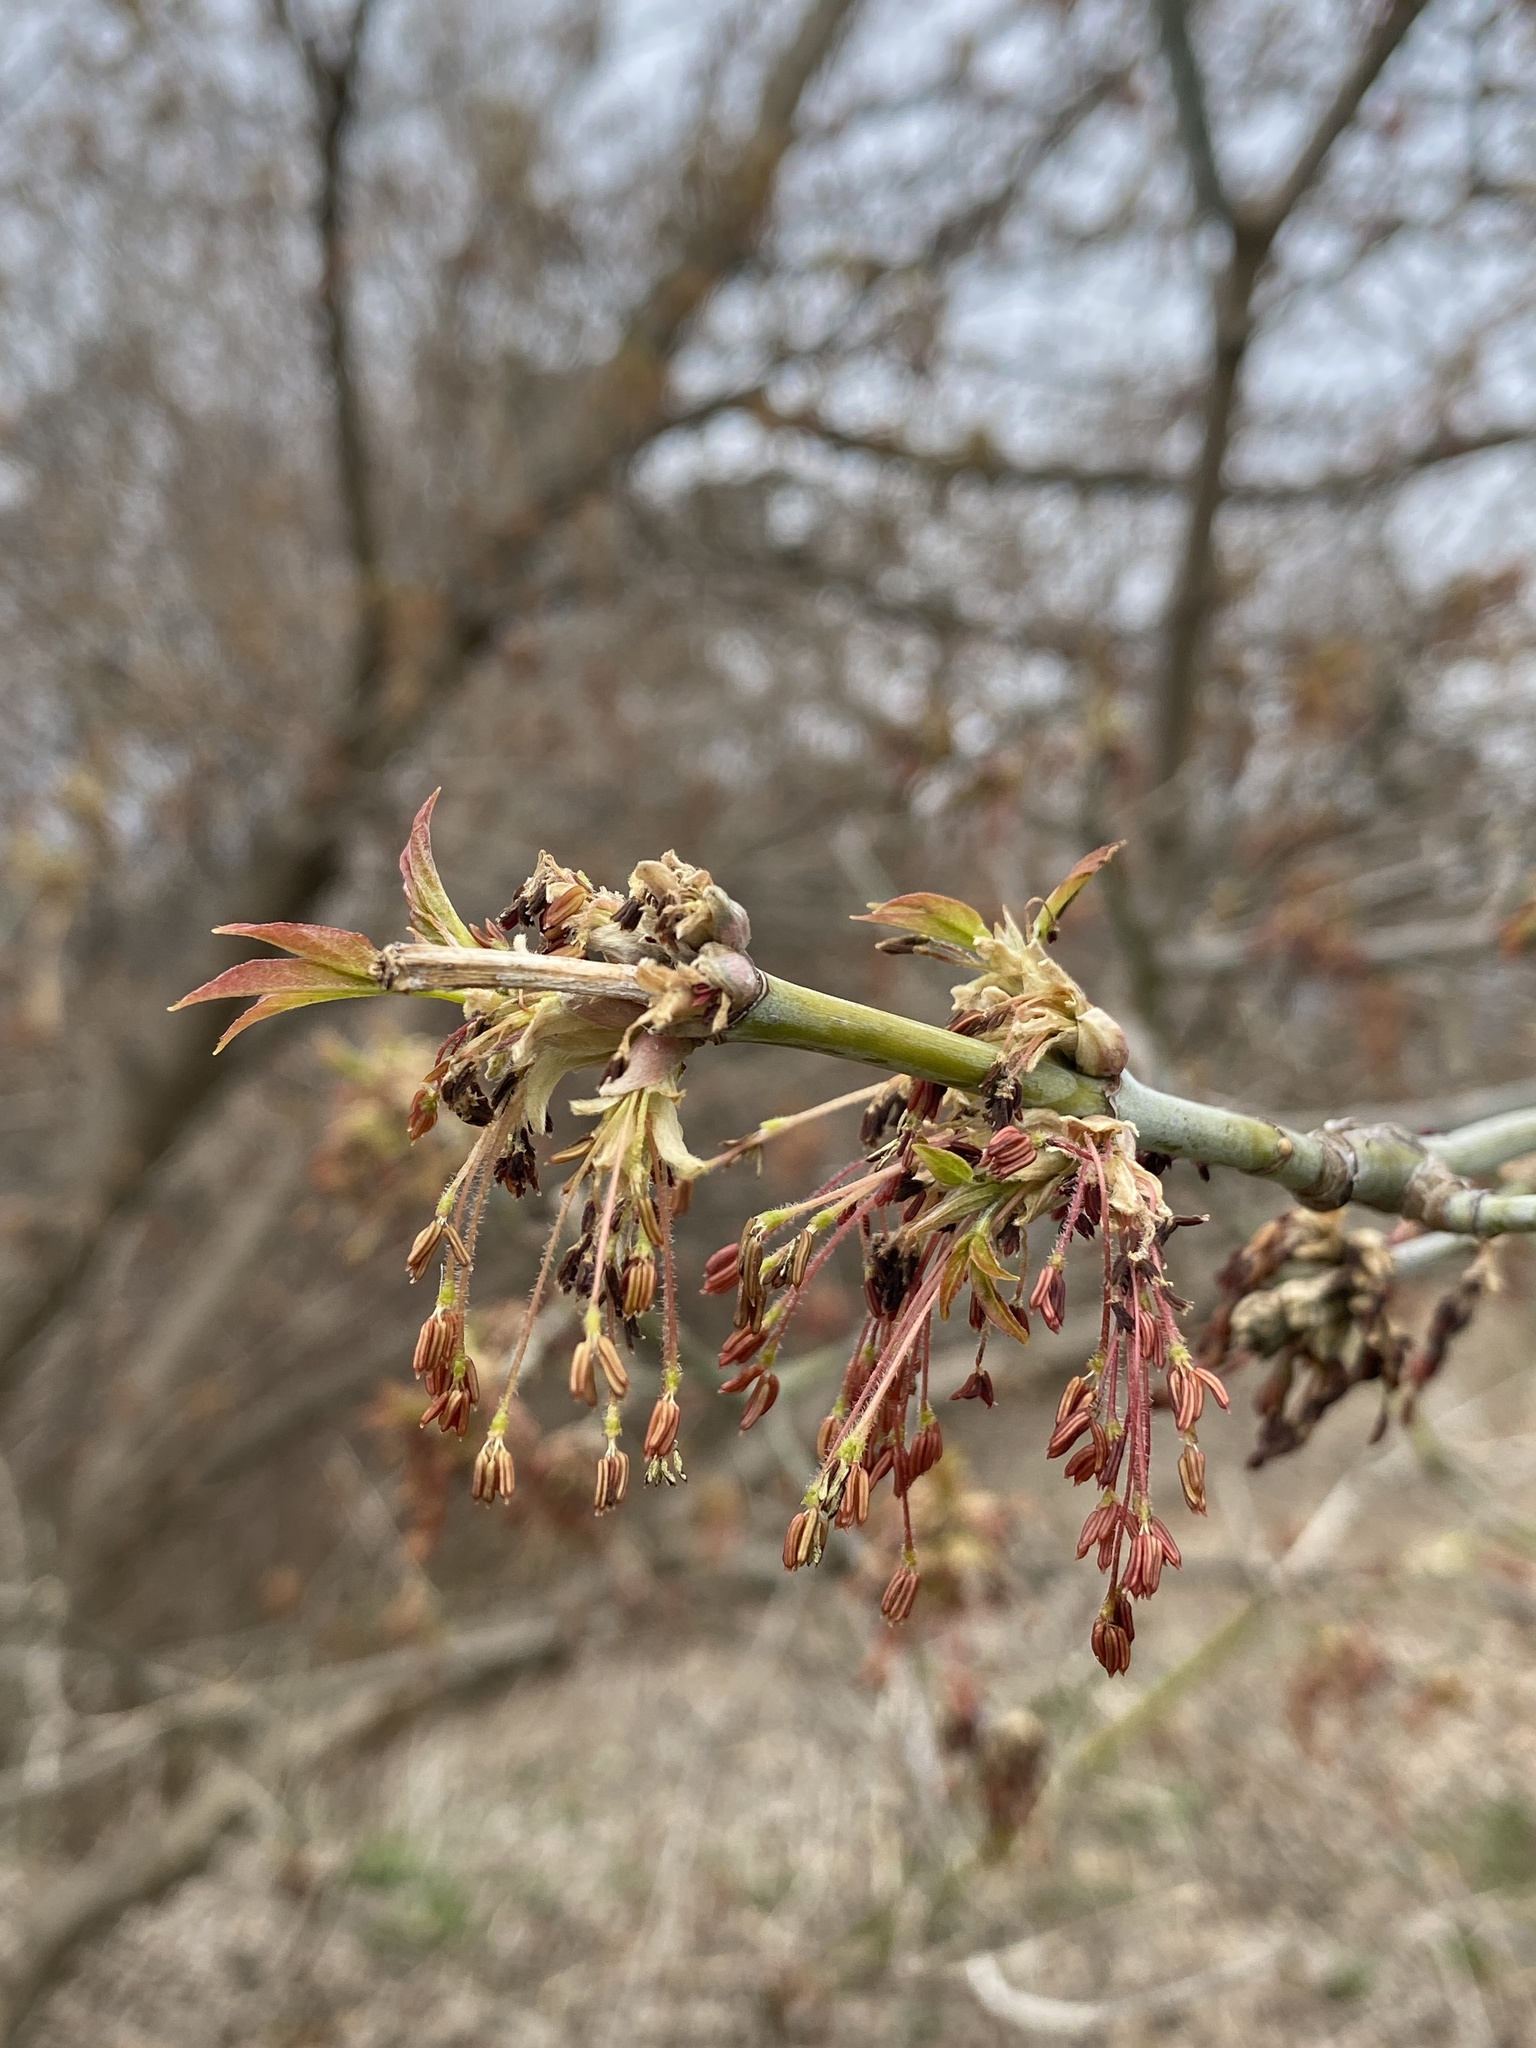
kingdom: Plantae
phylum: Tracheophyta
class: Magnoliopsida
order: Sapindales
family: Sapindaceae
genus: Acer
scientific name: Acer negundo
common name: Ashleaf maple
